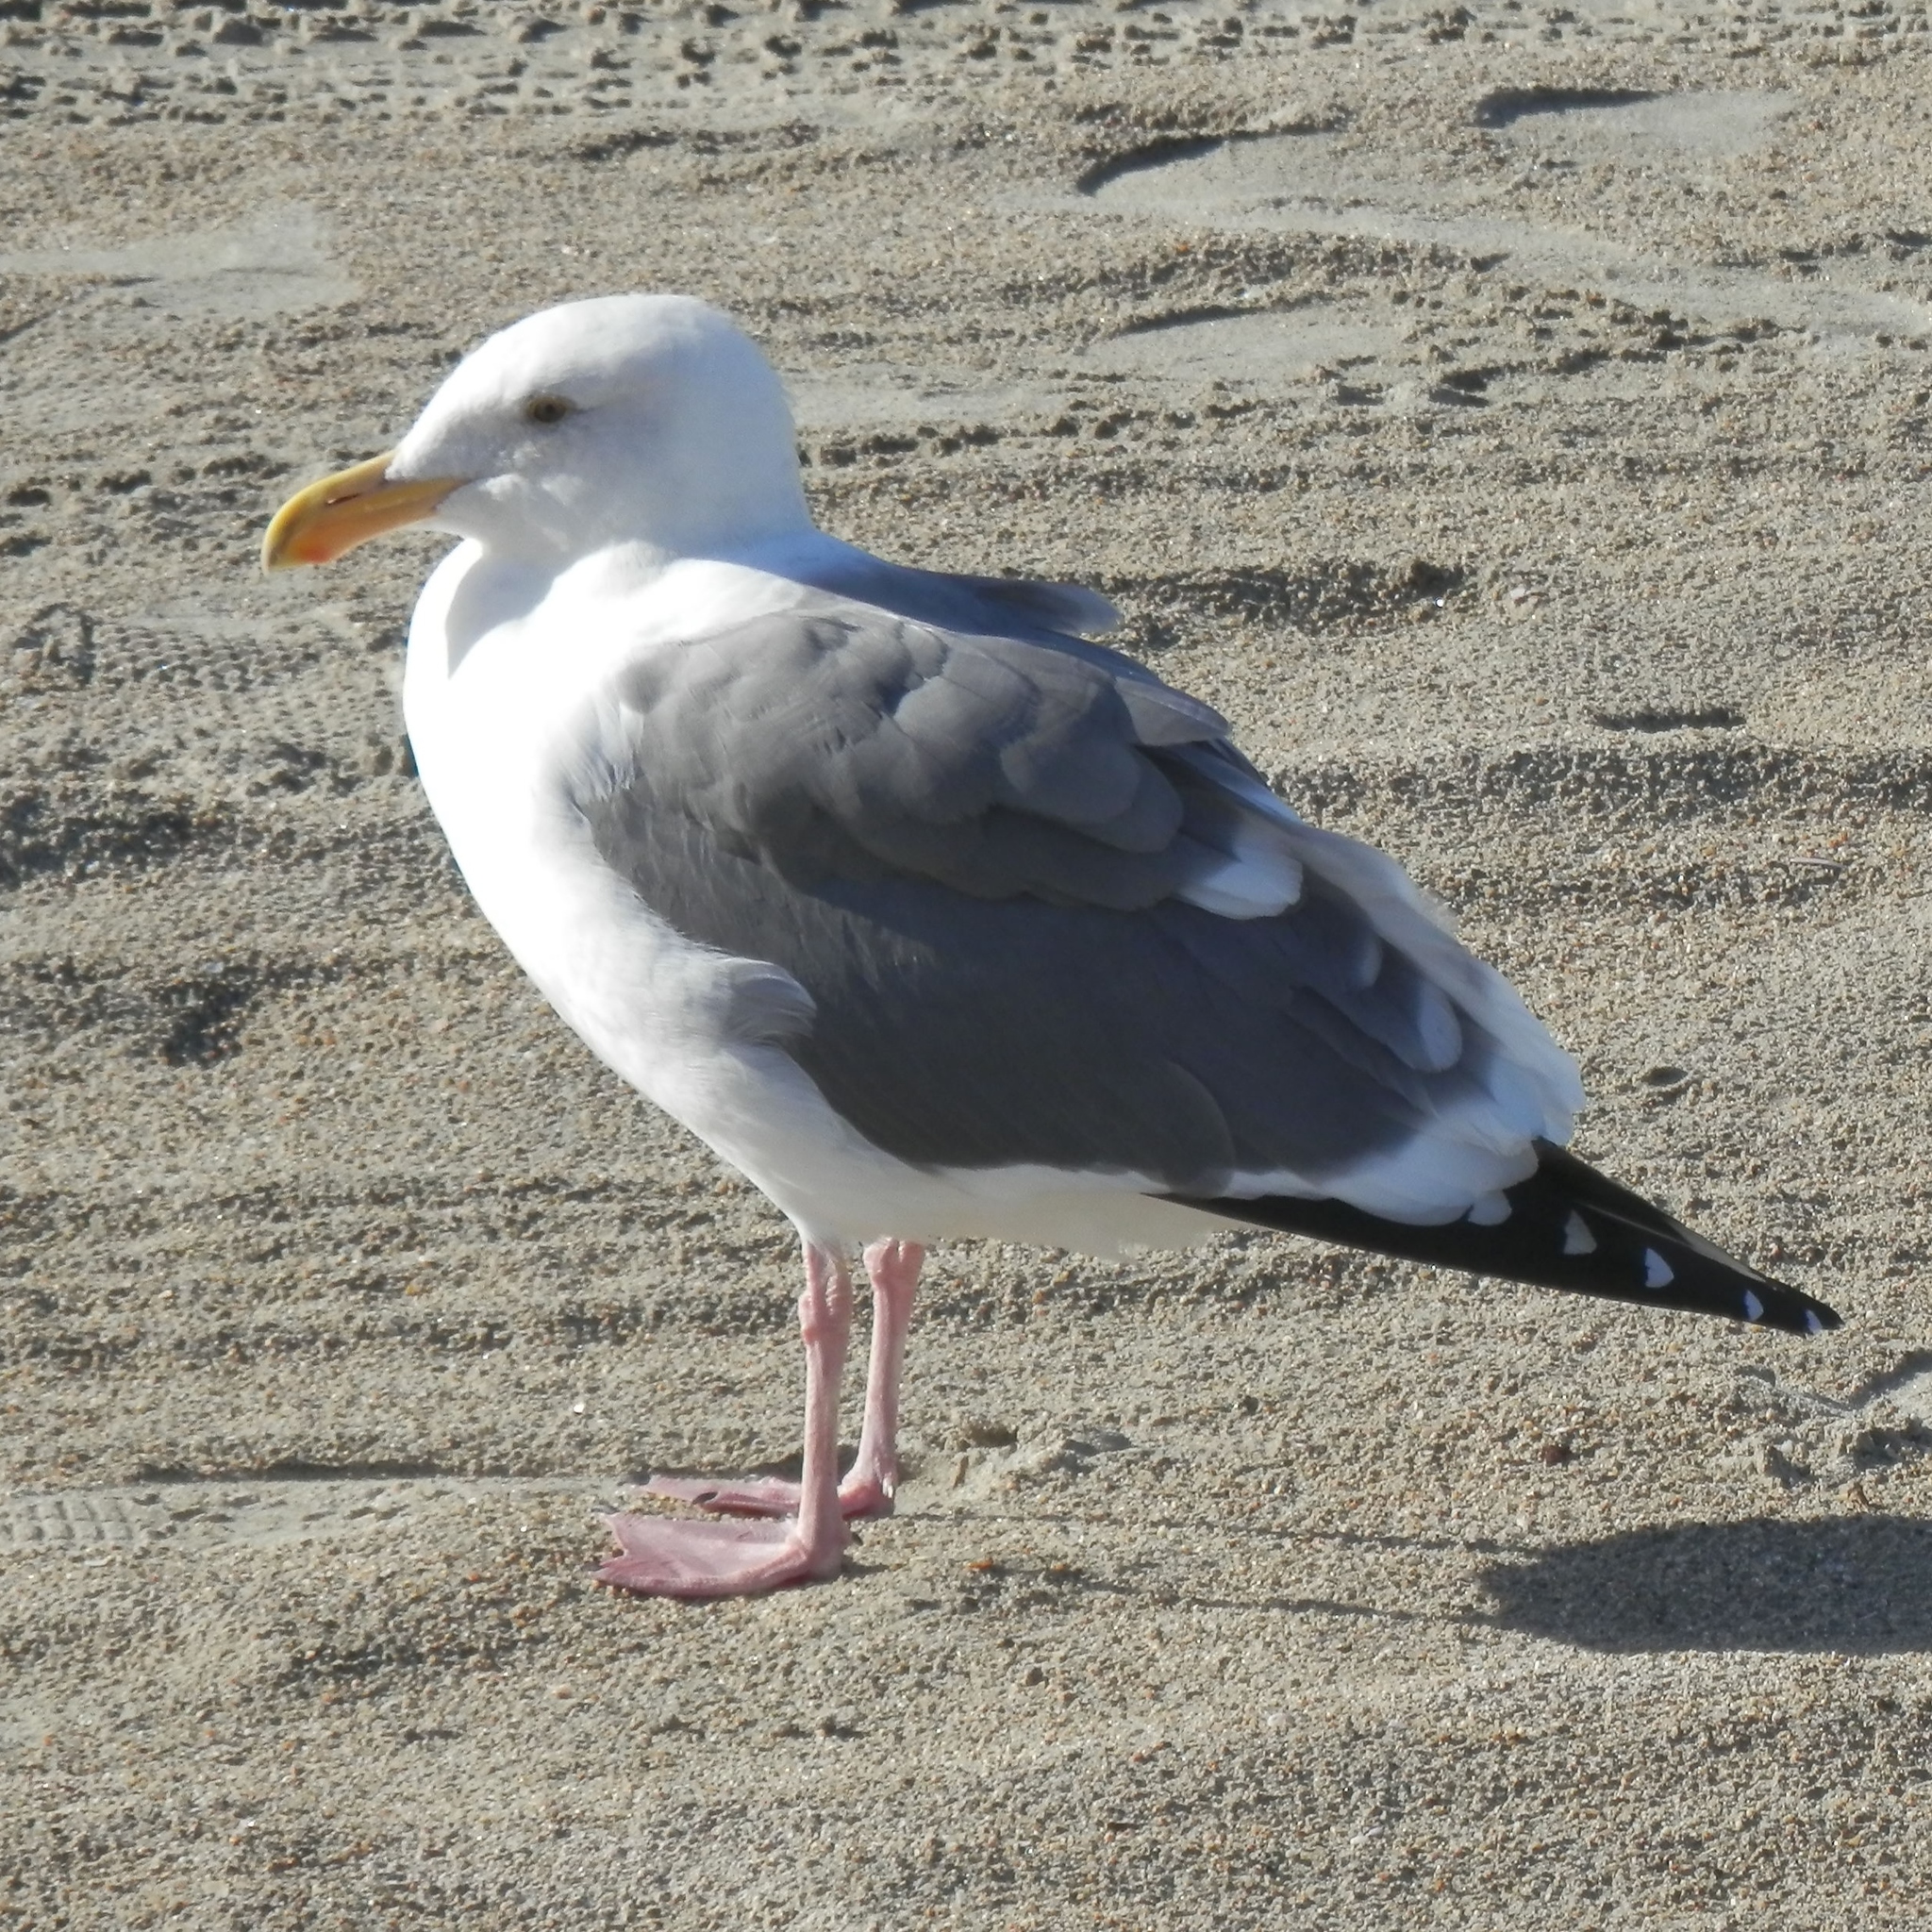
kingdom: Animalia
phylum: Chordata
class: Aves
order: Charadriiformes
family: Laridae
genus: Larus
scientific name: Larus occidentalis
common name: Western gull
